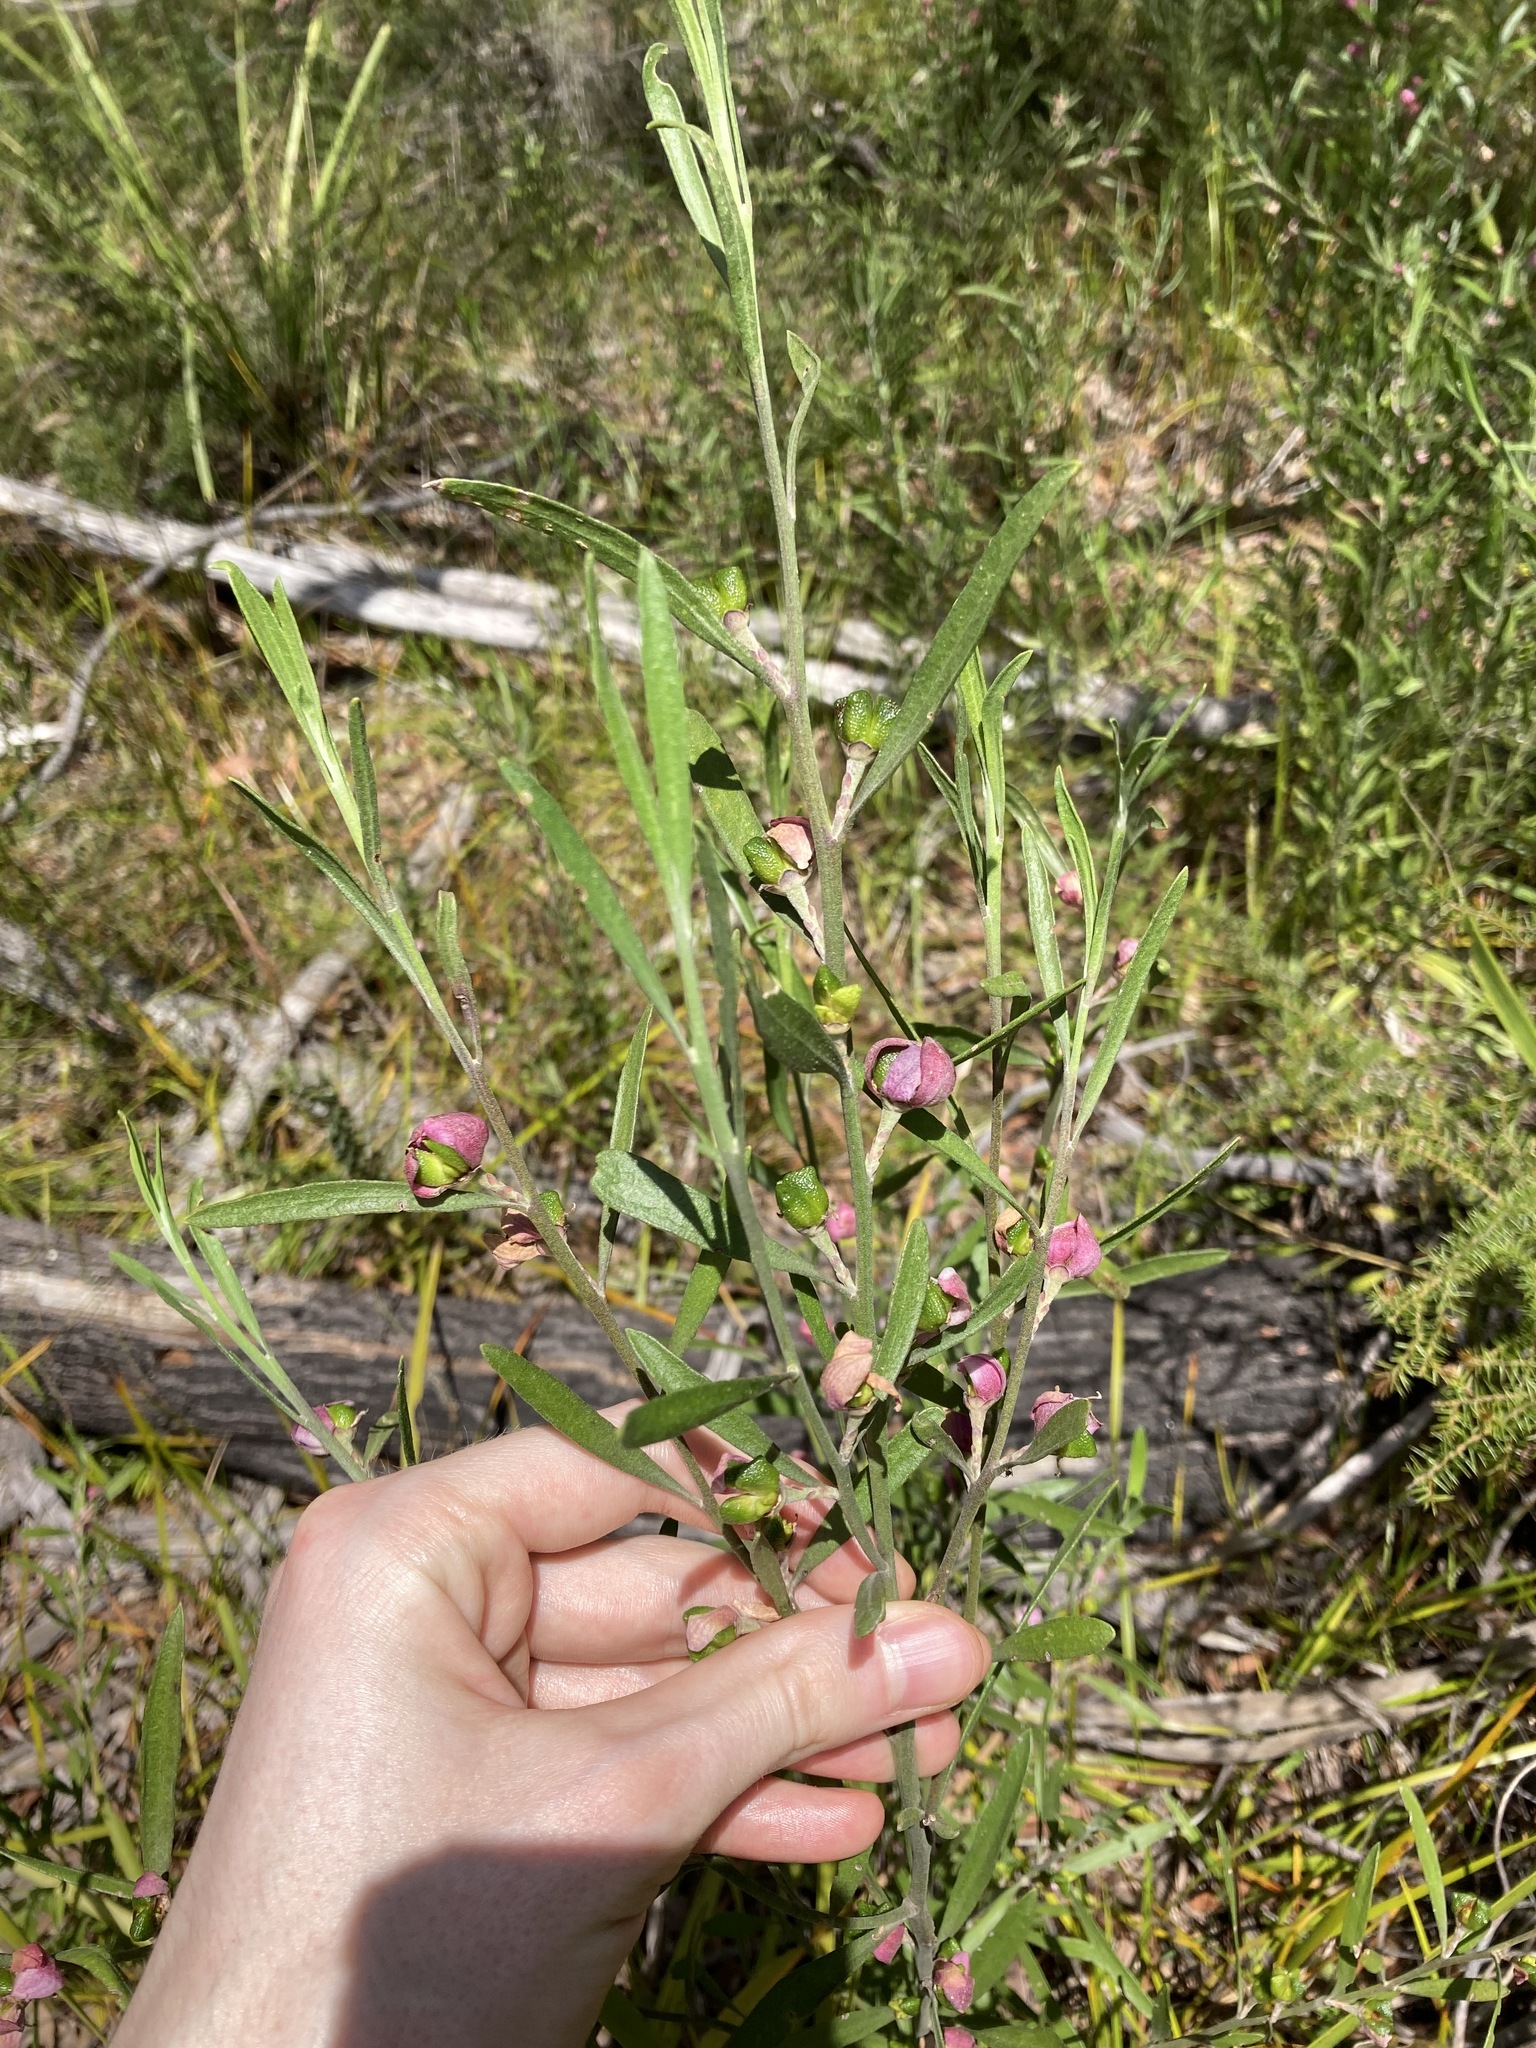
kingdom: Plantae
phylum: Tracheophyta
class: Magnoliopsida
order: Sapindales
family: Rutaceae
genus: Eriostemon
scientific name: Eriostemon australasius
